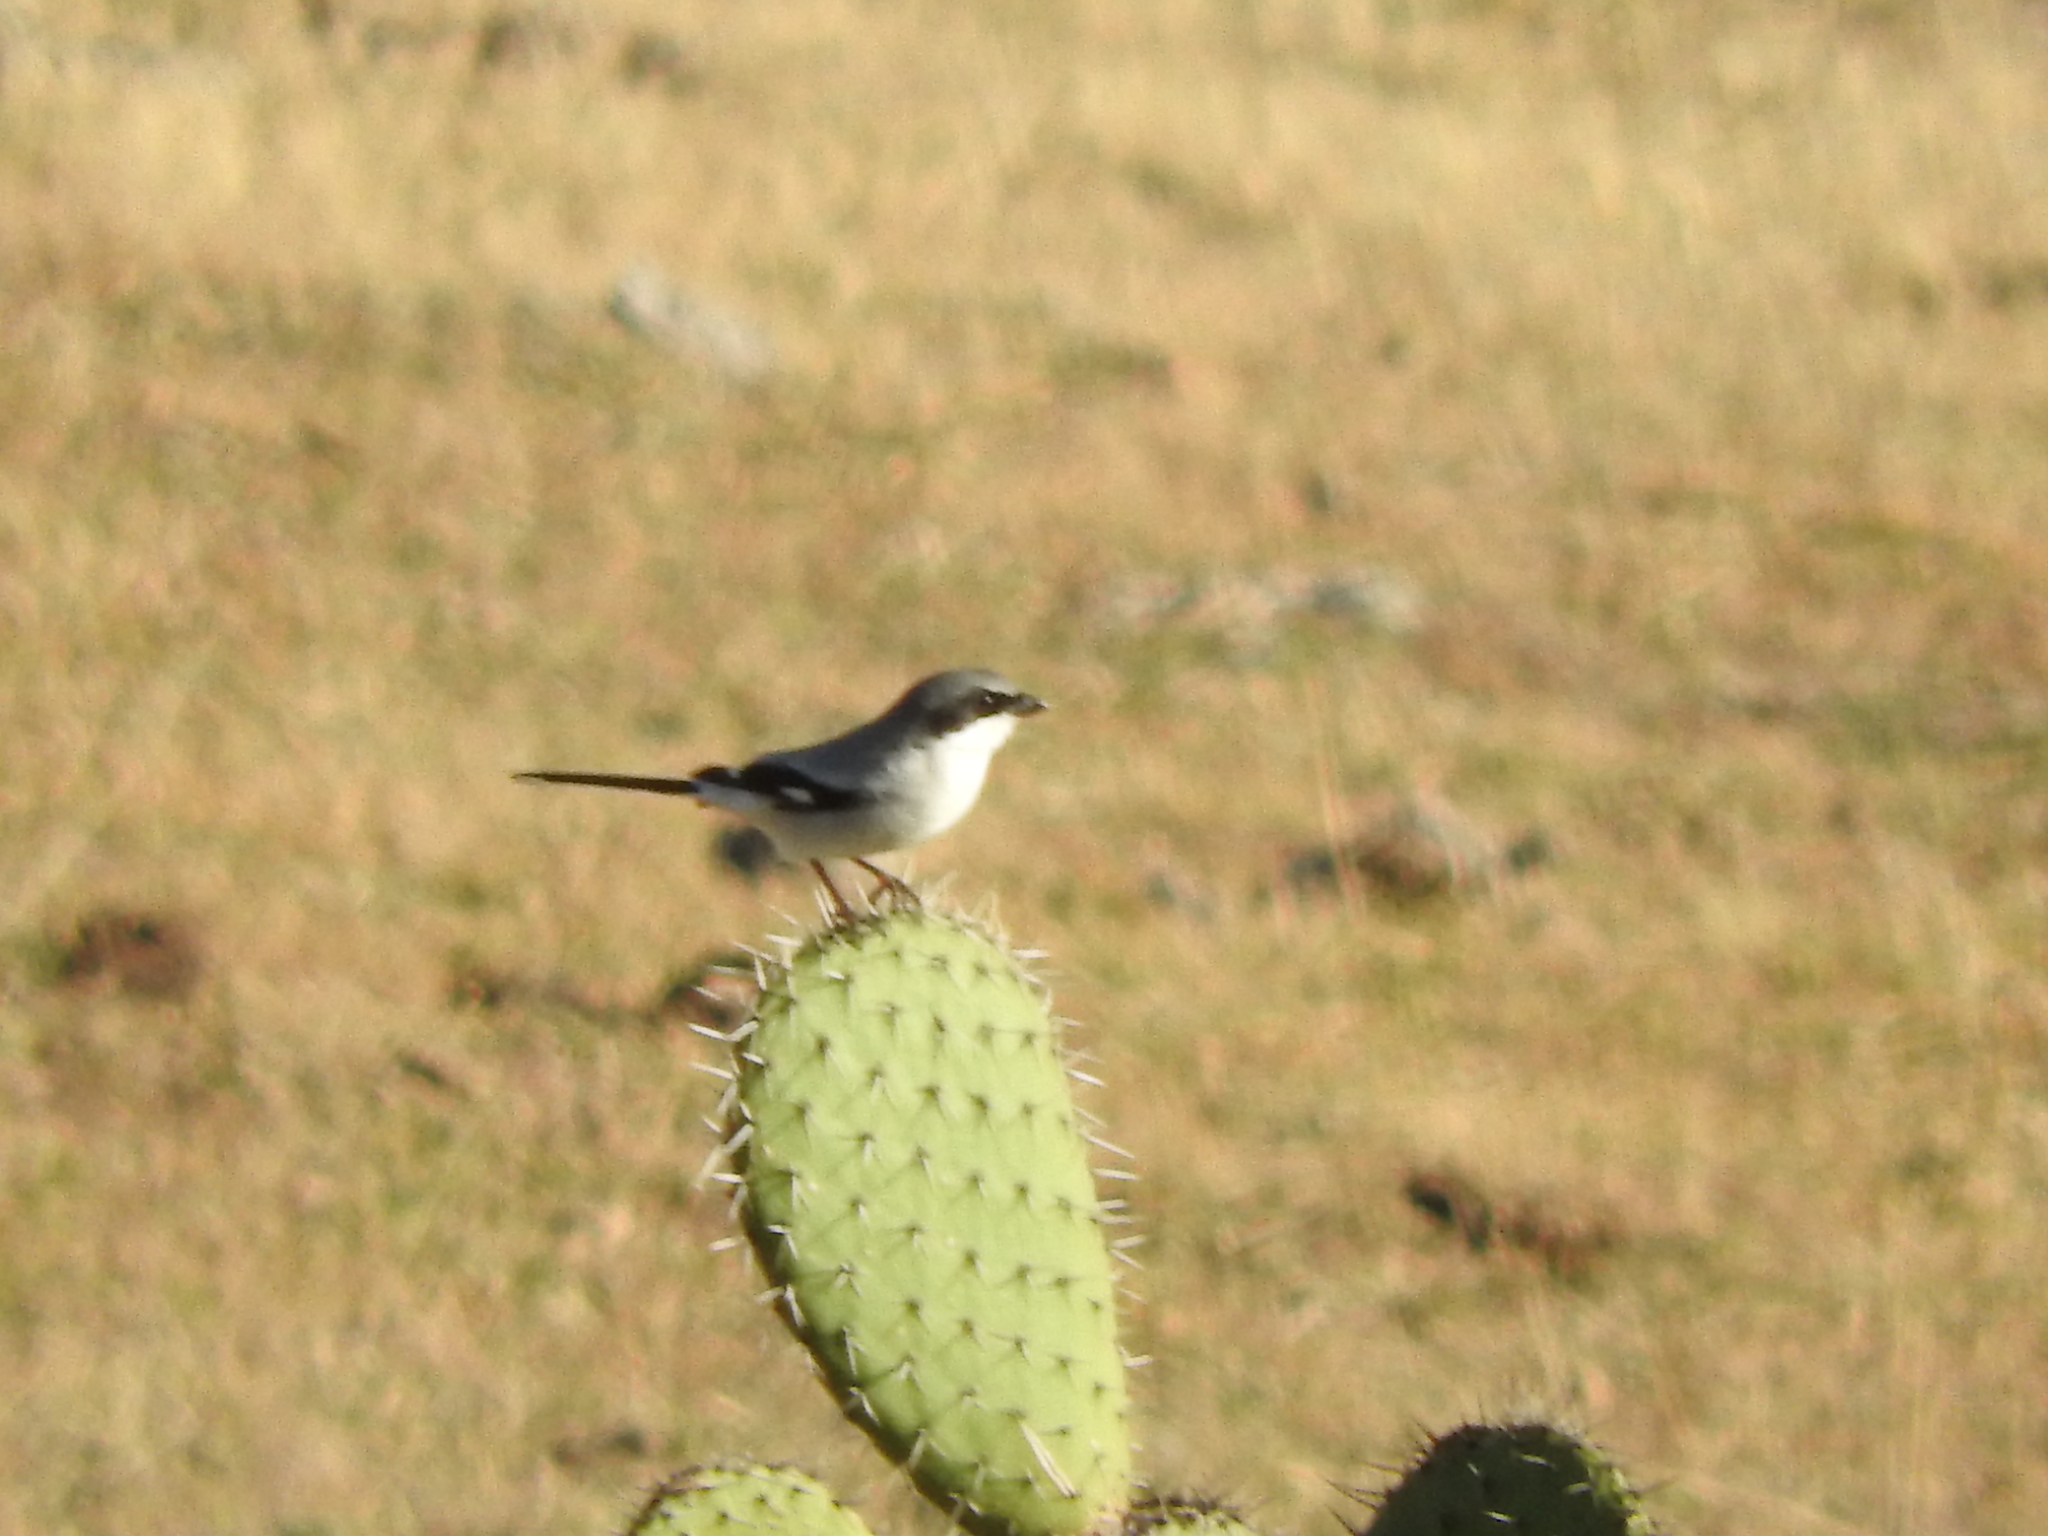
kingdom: Animalia
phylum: Chordata
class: Aves
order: Passeriformes
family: Laniidae
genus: Lanius
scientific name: Lanius ludovicianus
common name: Loggerhead shrike
